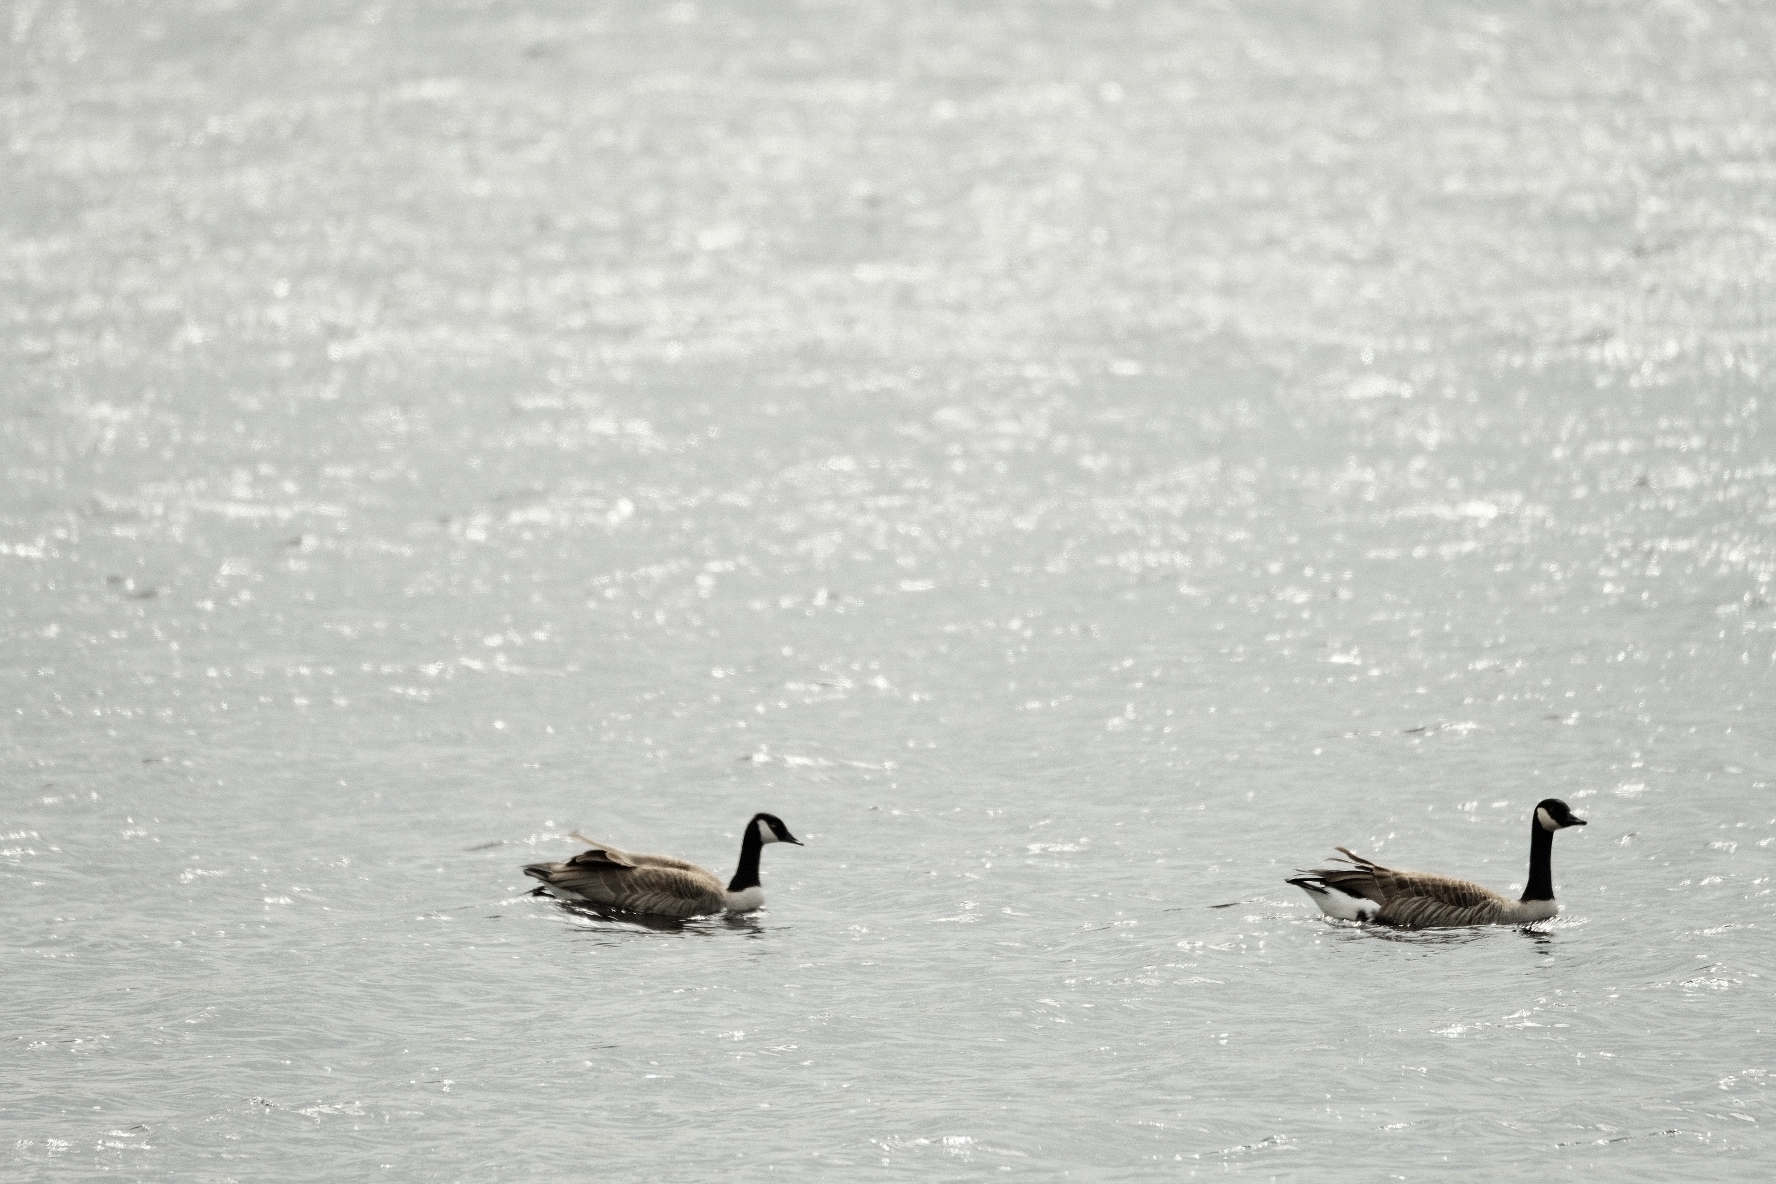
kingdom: Animalia
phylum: Chordata
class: Aves
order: Anseriformes
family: Anatidae
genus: Branta
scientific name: Branta canadensis
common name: Canada goose
